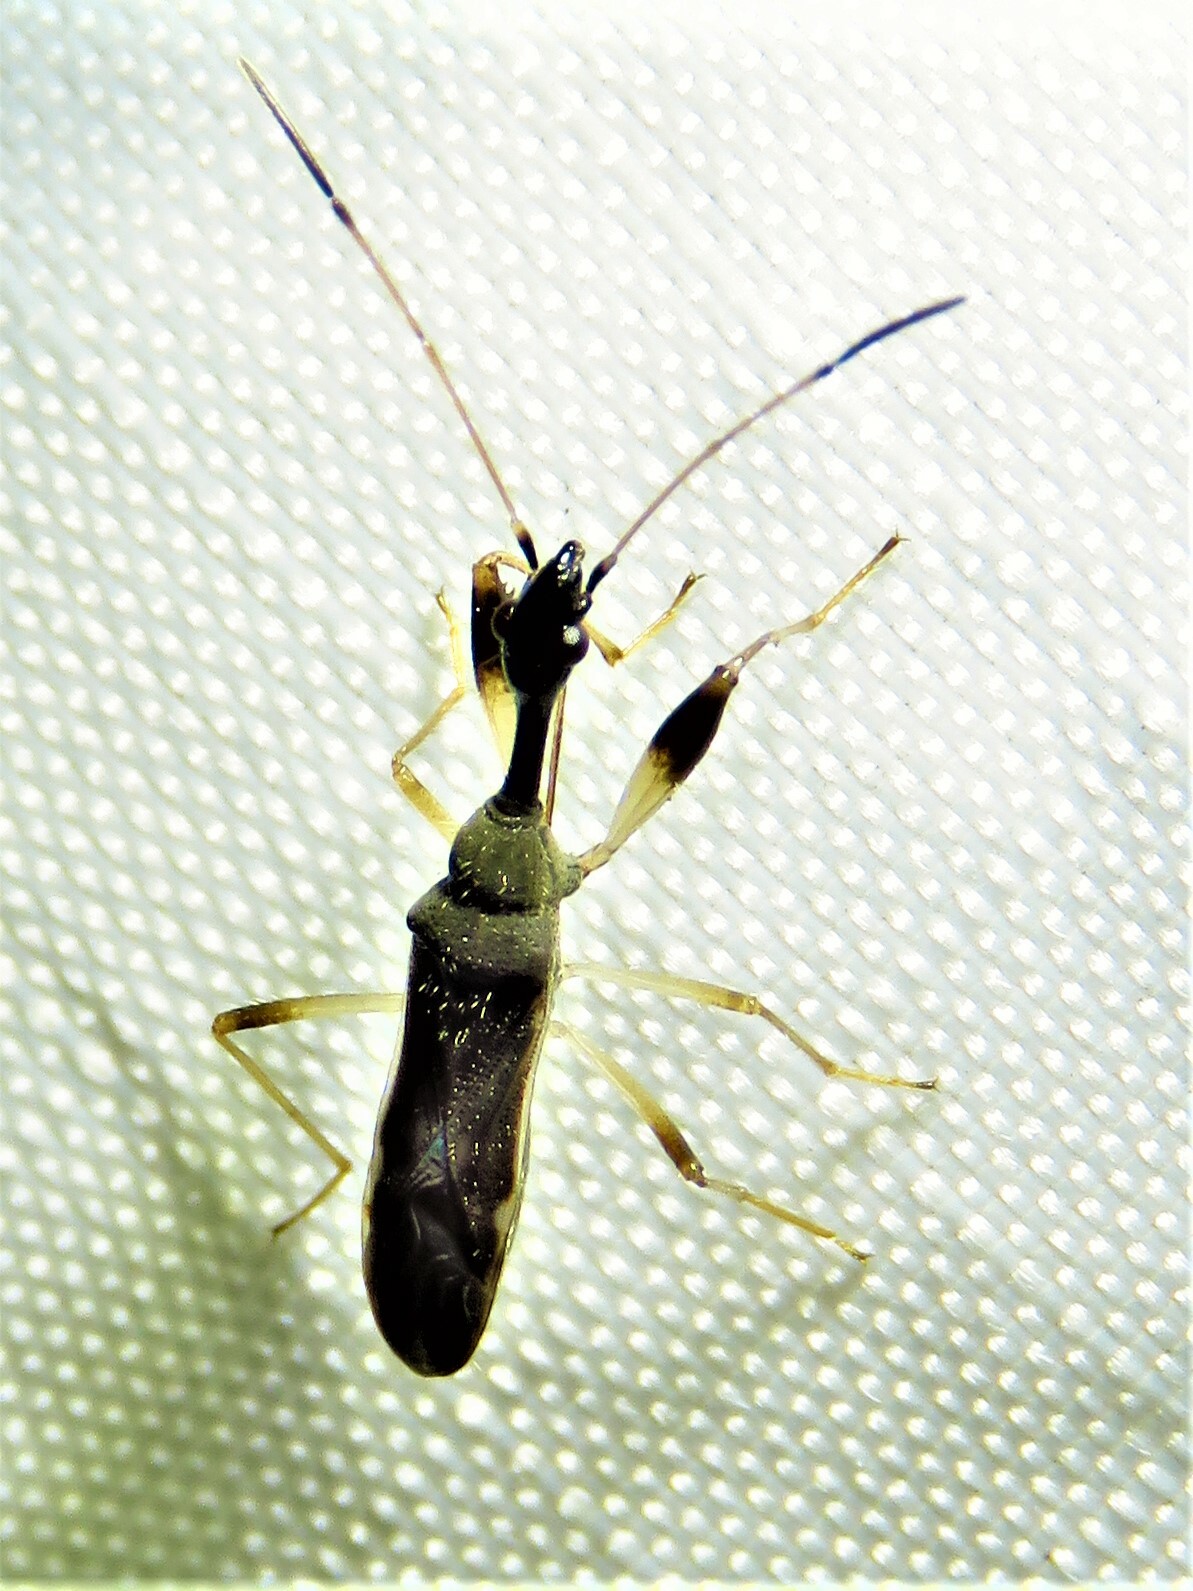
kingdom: Animalia
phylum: Arthropoda
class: Insecta
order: Hemiptera
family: Rhyparochromidae
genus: Myodocha
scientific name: Myodocha serripes
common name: Long-necked seed bug
